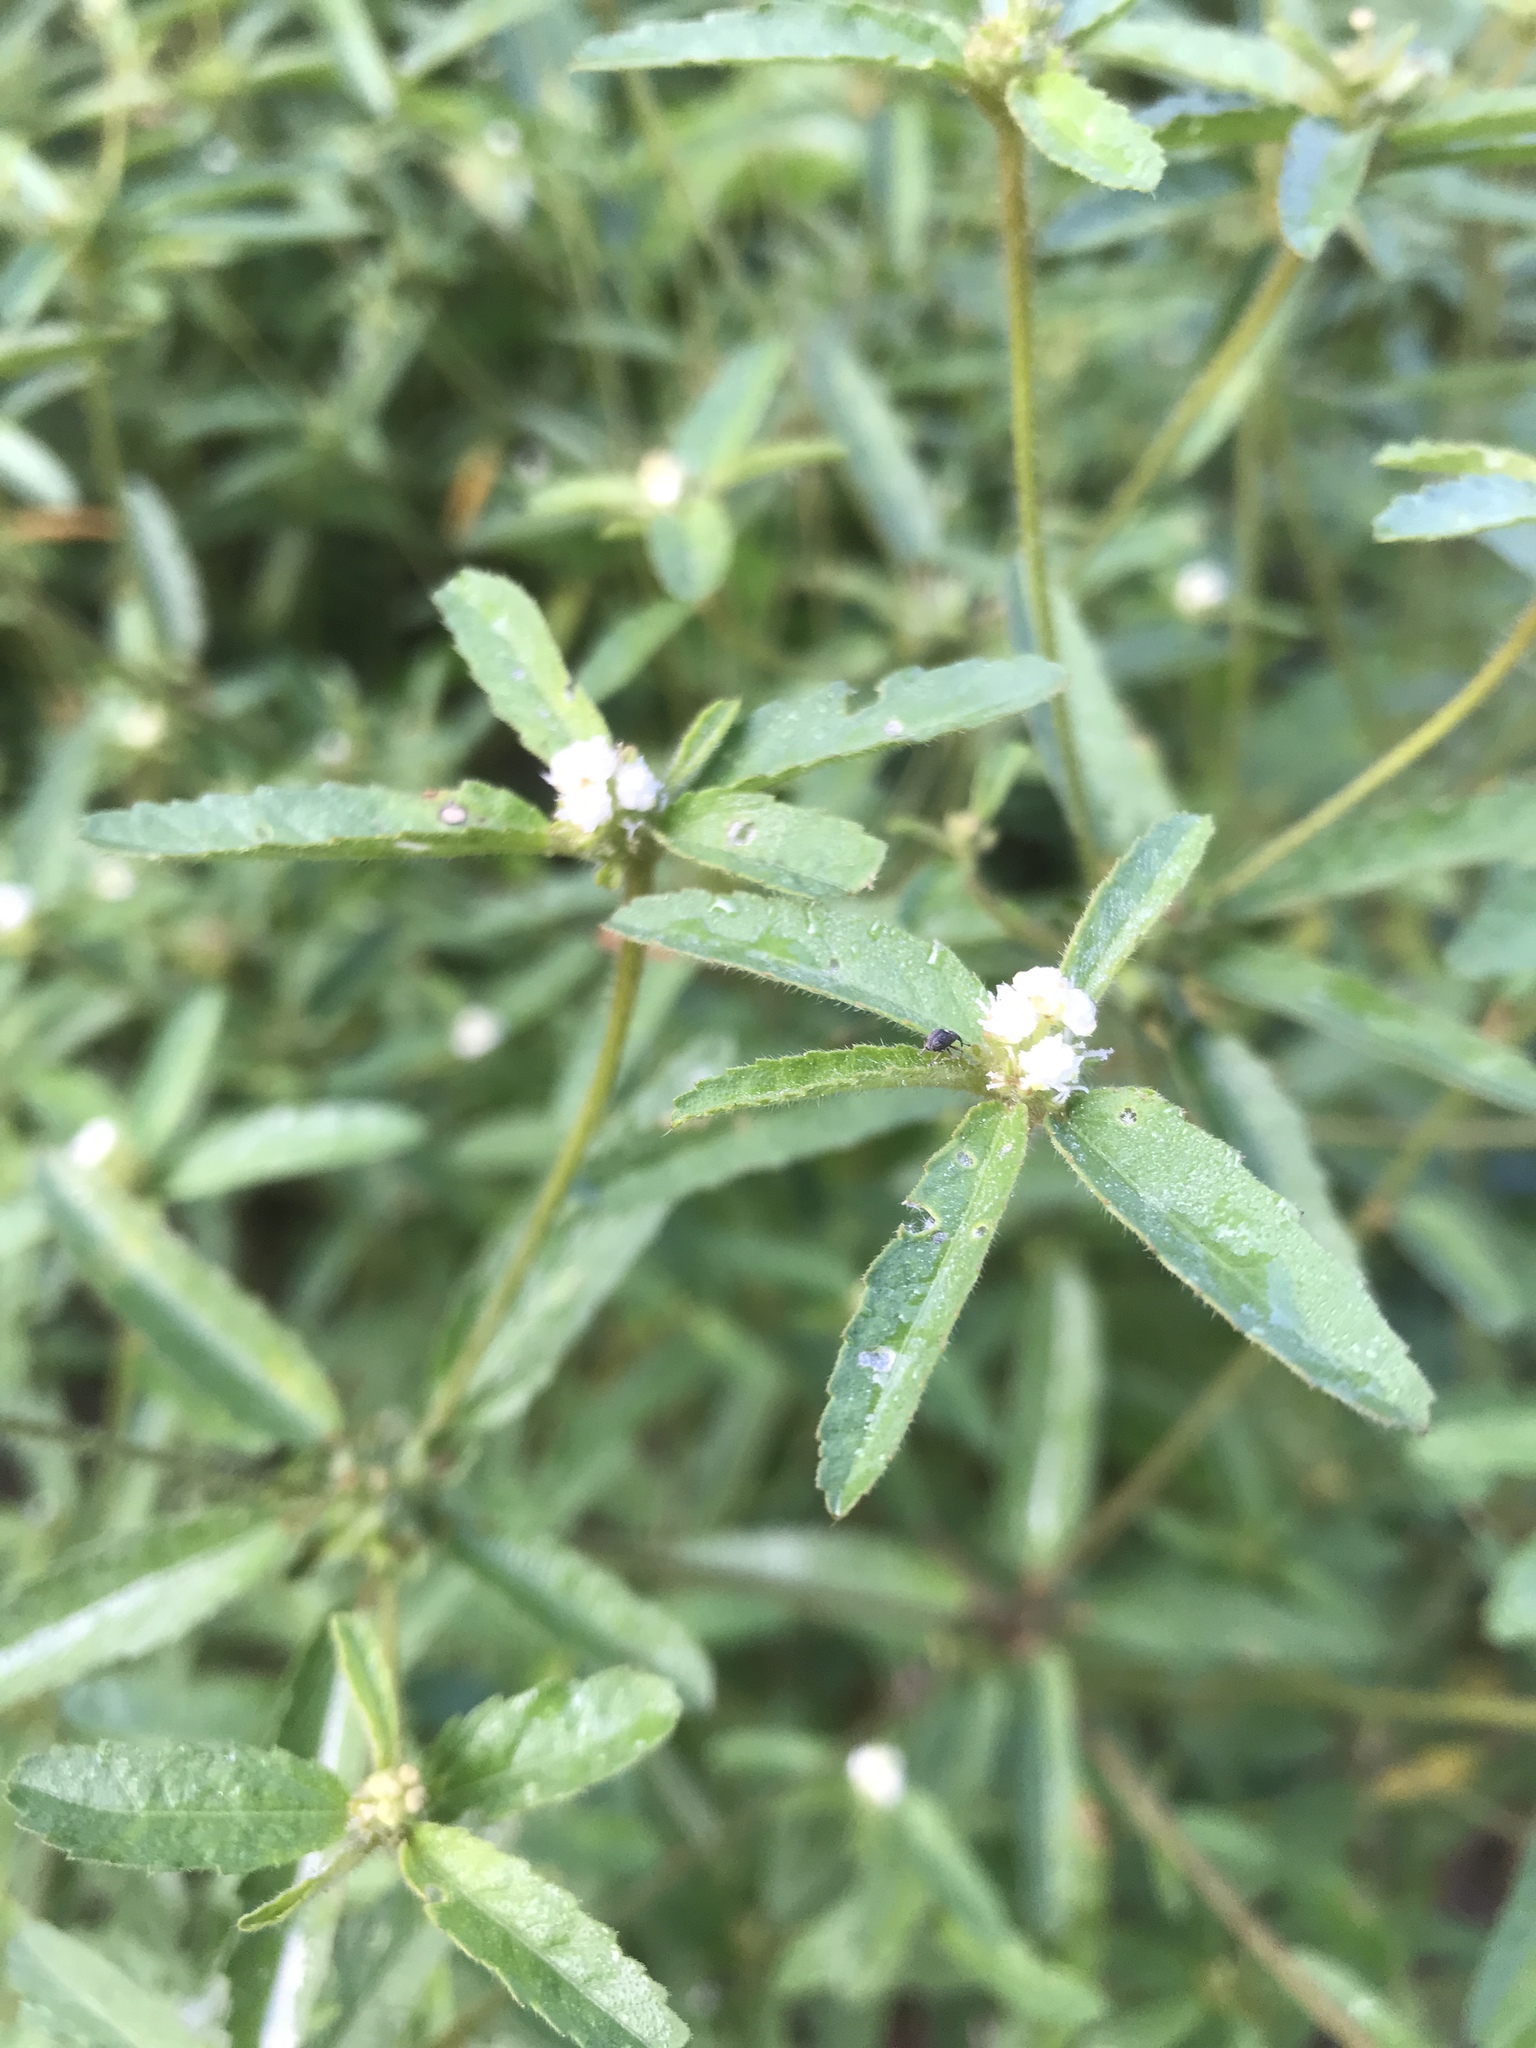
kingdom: Plantae
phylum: Tracheophyta
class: Magnoliopsida
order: Malpighiales
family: Euphorbiaceae
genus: Croton
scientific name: Croton glandulosus
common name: Tropic croton
